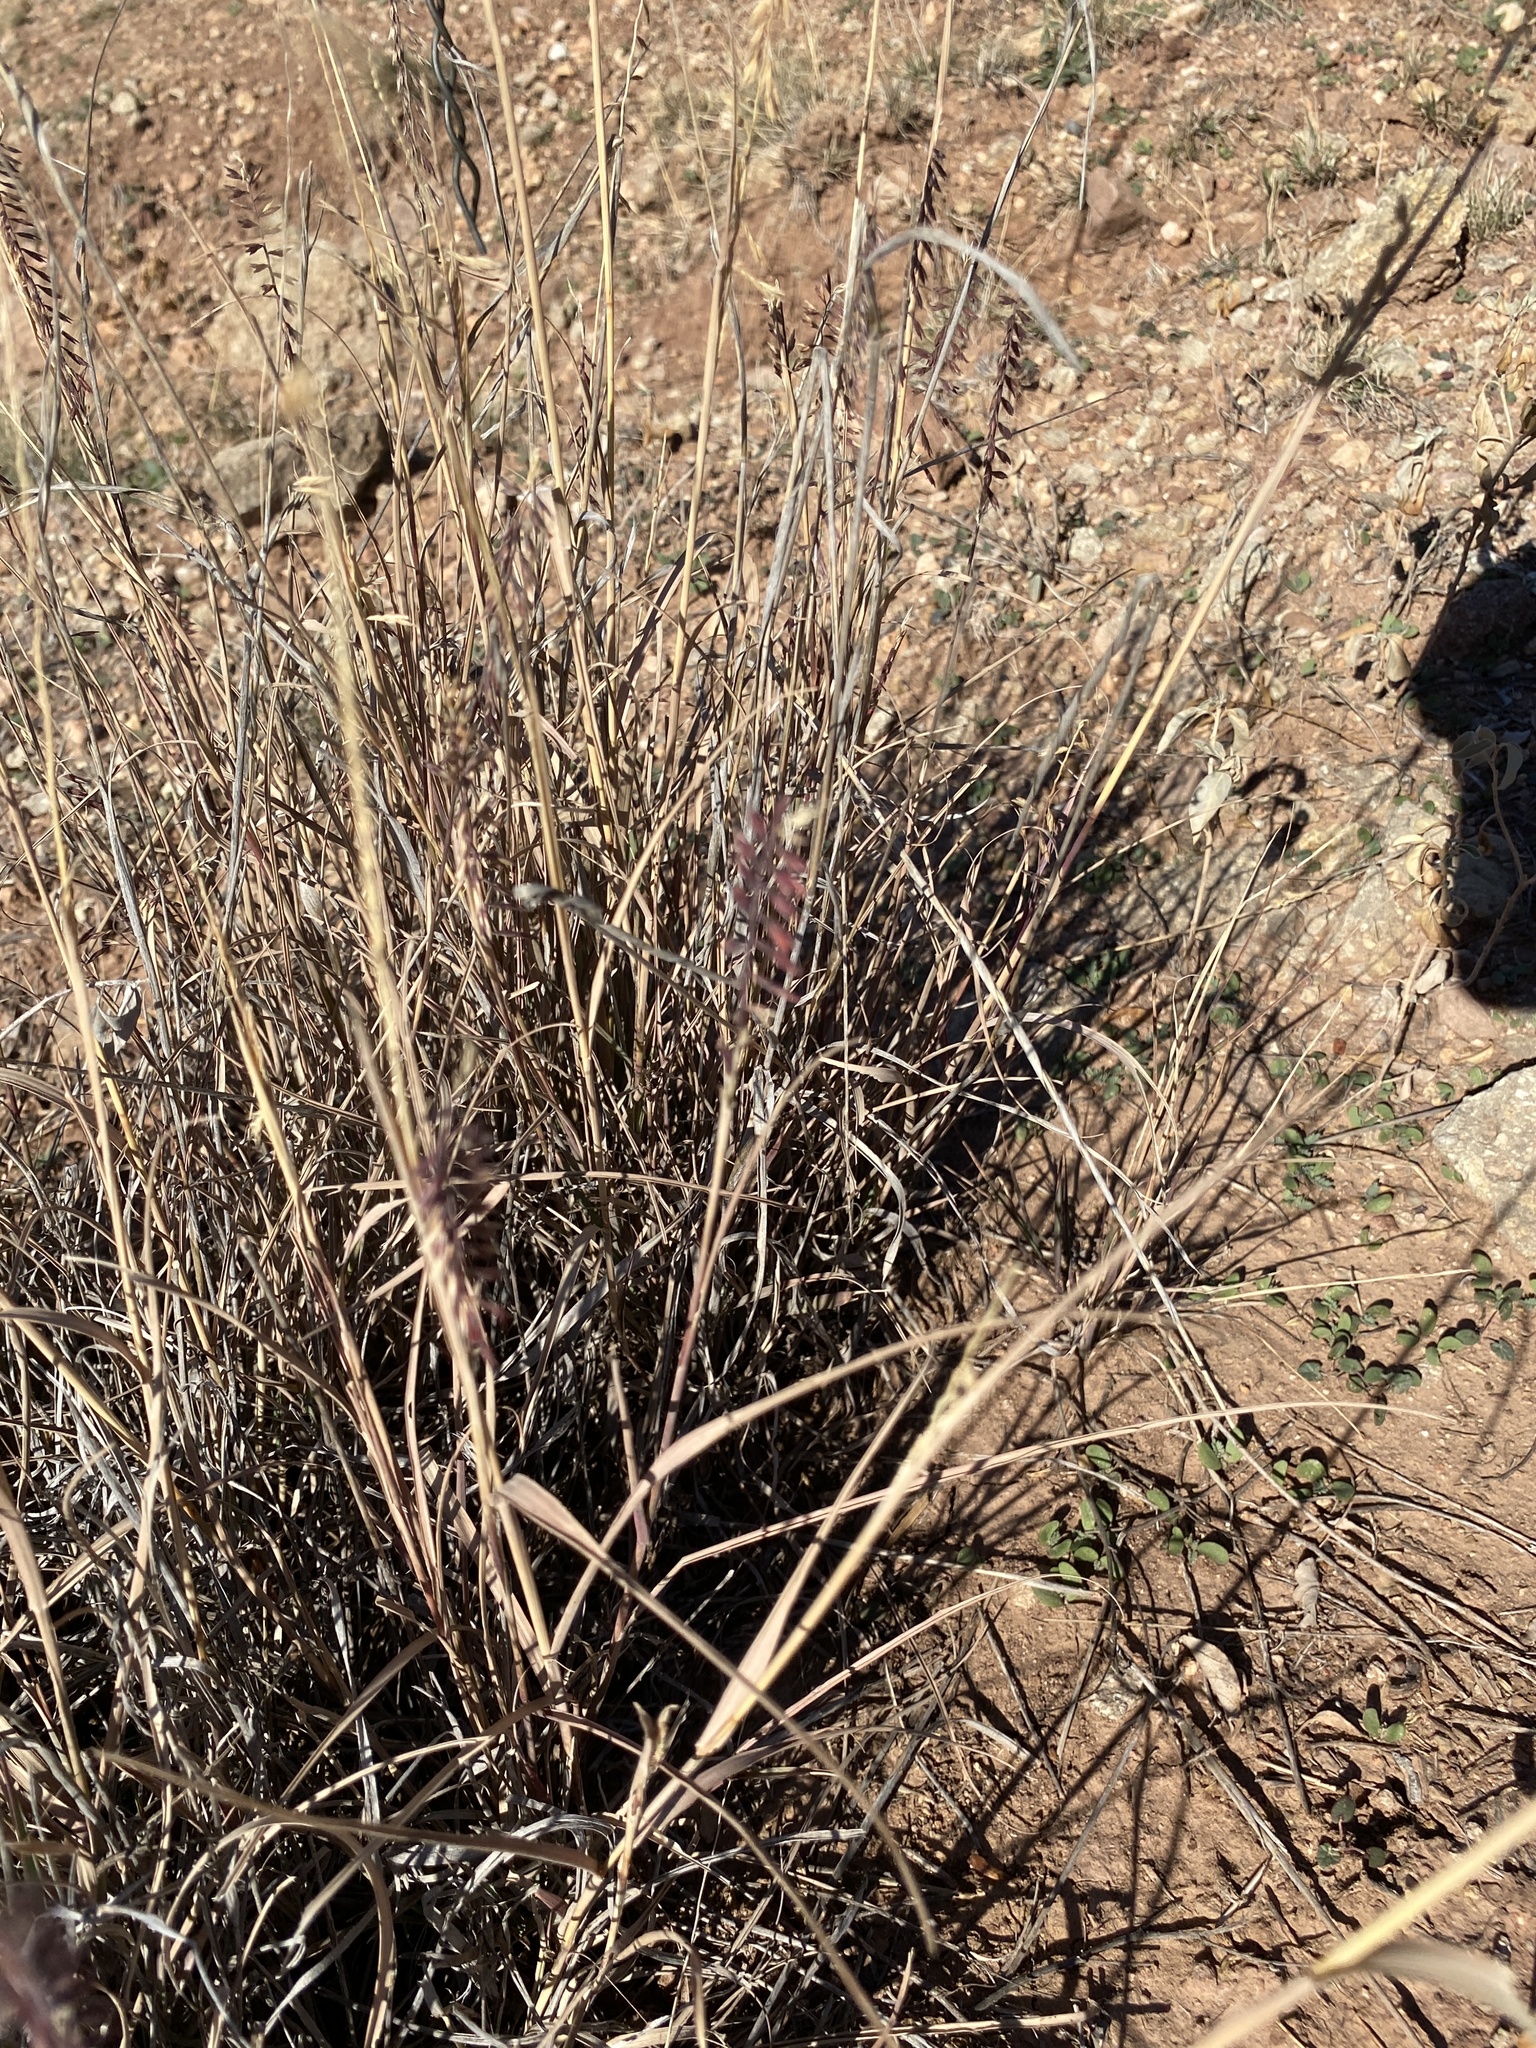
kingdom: Plantae
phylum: Tracheophyta
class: Liliopsida
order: Poales
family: Poaceae
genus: Bouteloua
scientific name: Bouteloua curtipendula
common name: Side-oats grama
